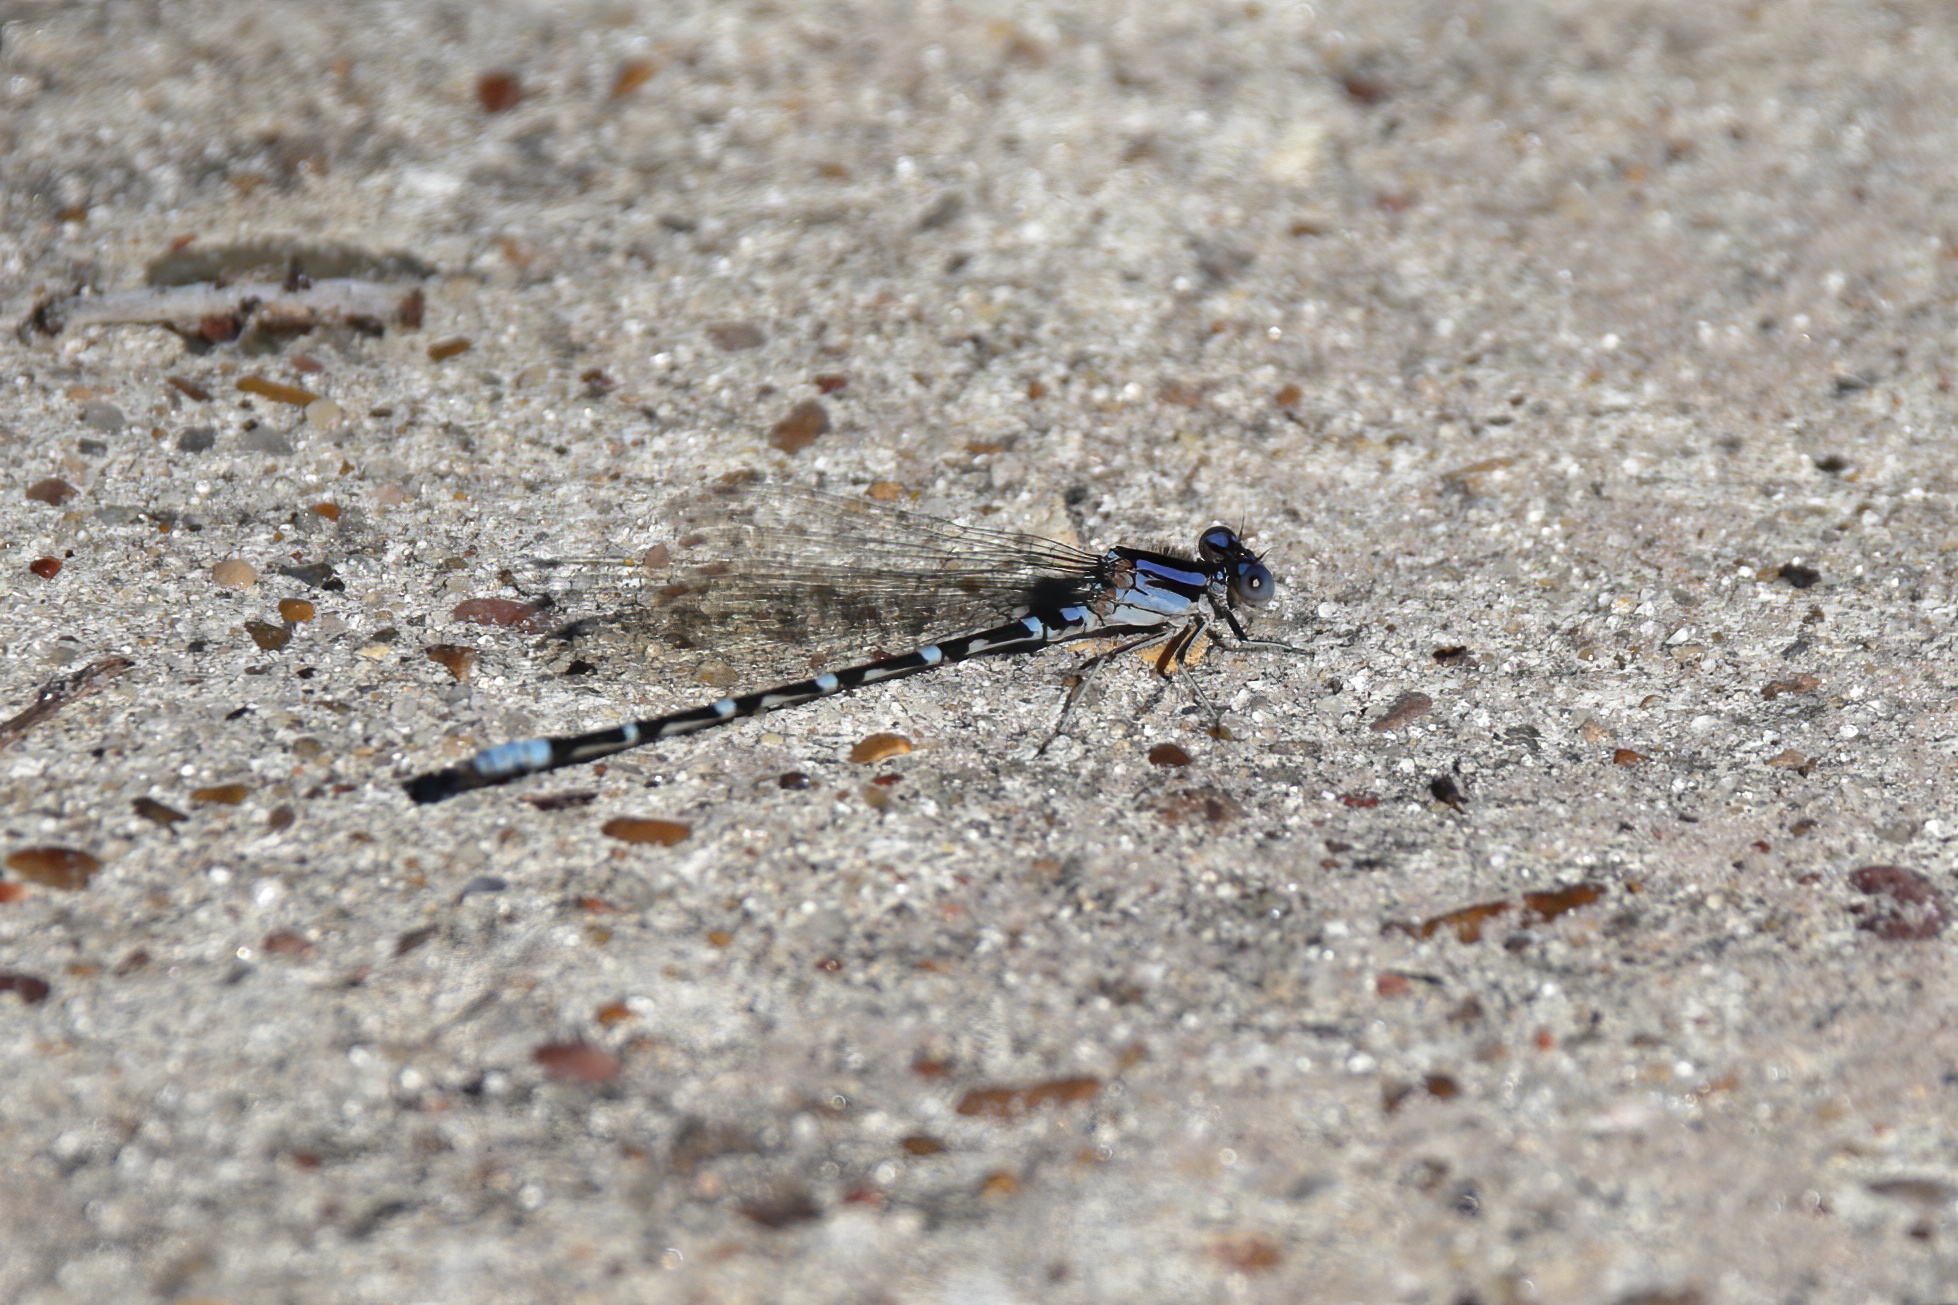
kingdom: Animalia
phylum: Arthropoda
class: Insecta
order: Odonata
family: Coenagrionidae
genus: Argia
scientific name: Argia sedula
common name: Blue-ringed dancer
